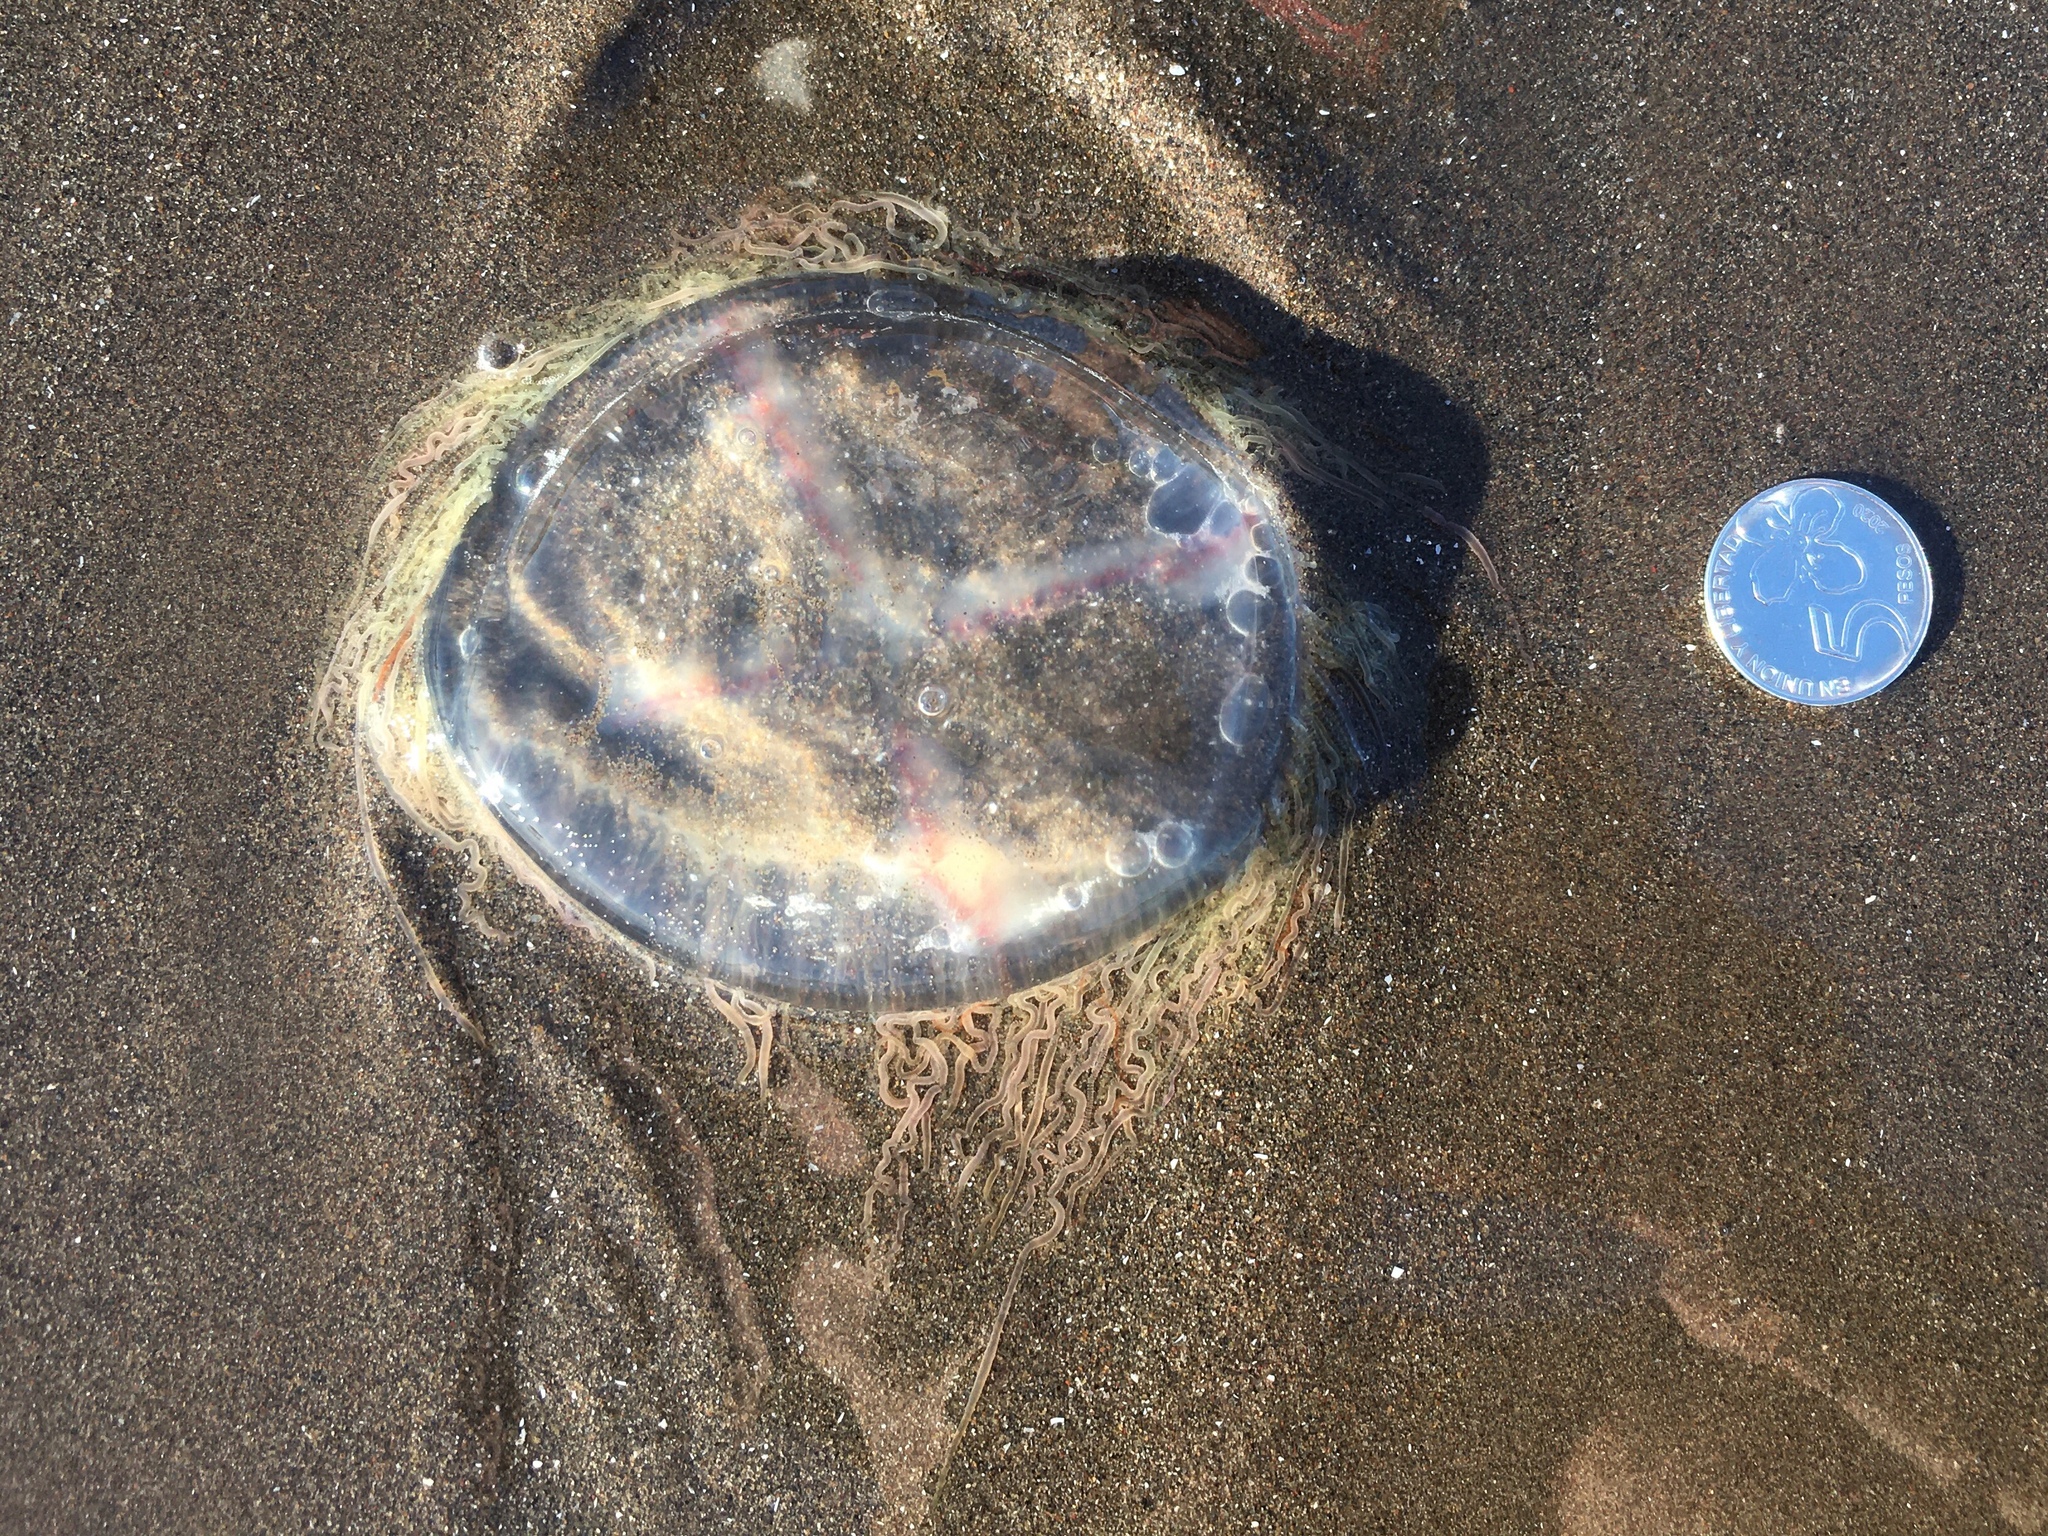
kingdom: Animalia
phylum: Cnidaria
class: Hydrozoa
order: Limnomedusae
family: Olindiidae
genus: Olindias
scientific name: Olindias sambaquiensis
